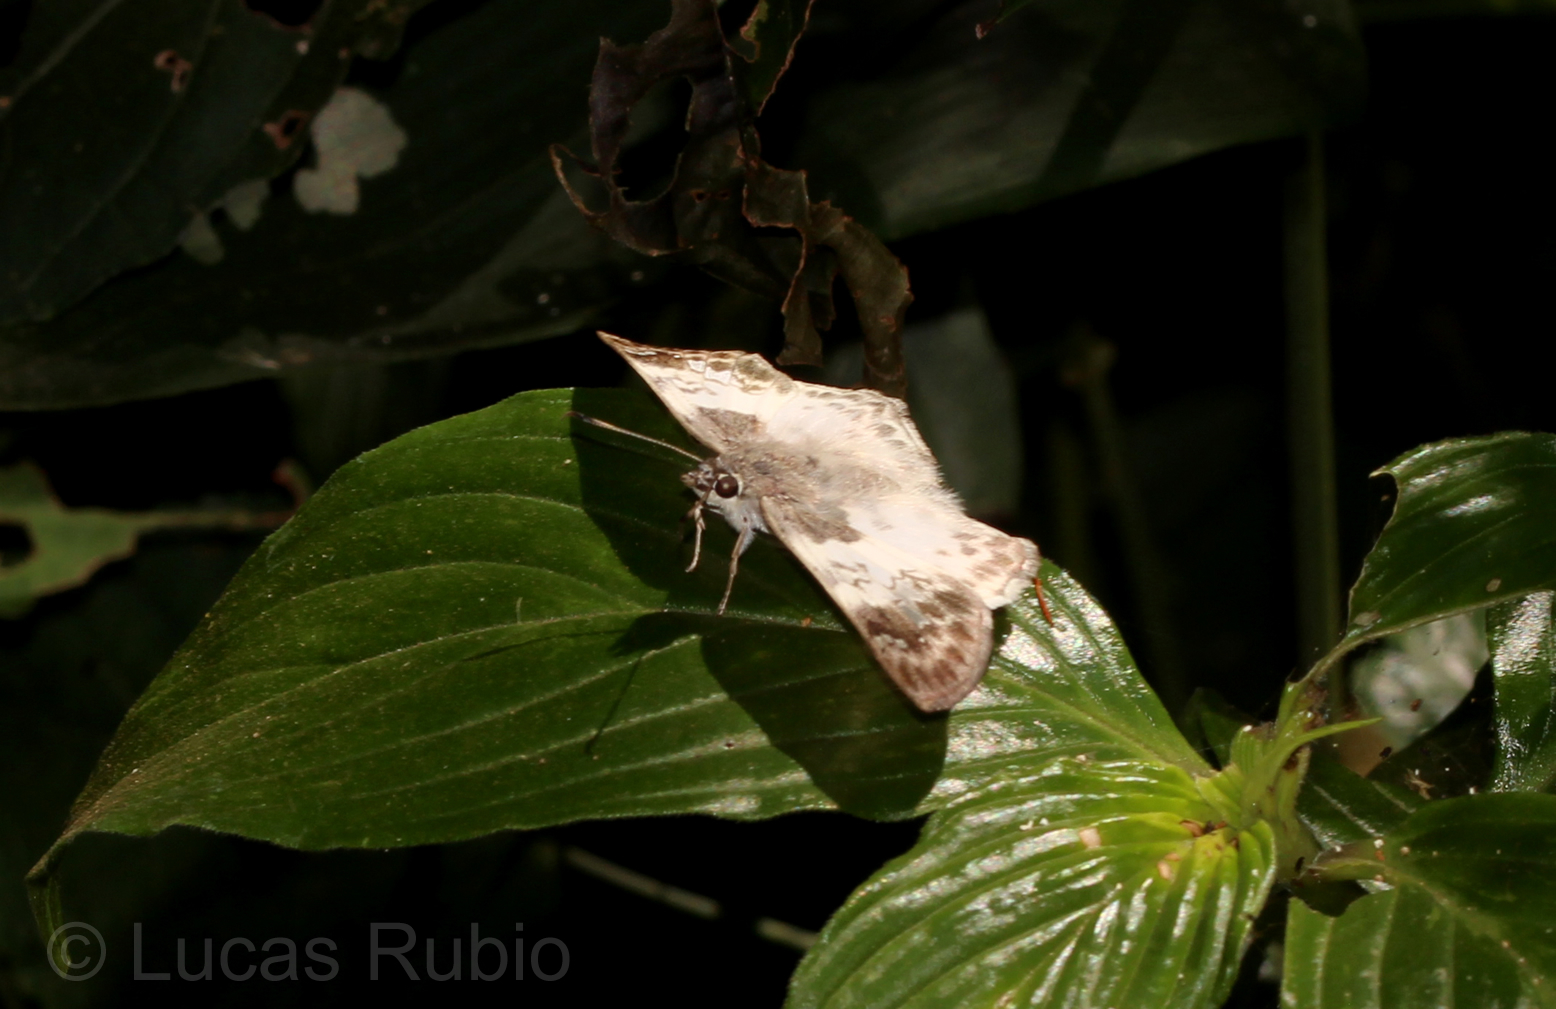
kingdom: Animalia
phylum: Arthropoda
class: Insecta
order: Lepidoptera
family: Hesperiidae
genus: Polyctor
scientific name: Polyctor polyctor
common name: Polyctor tufted-skipper
